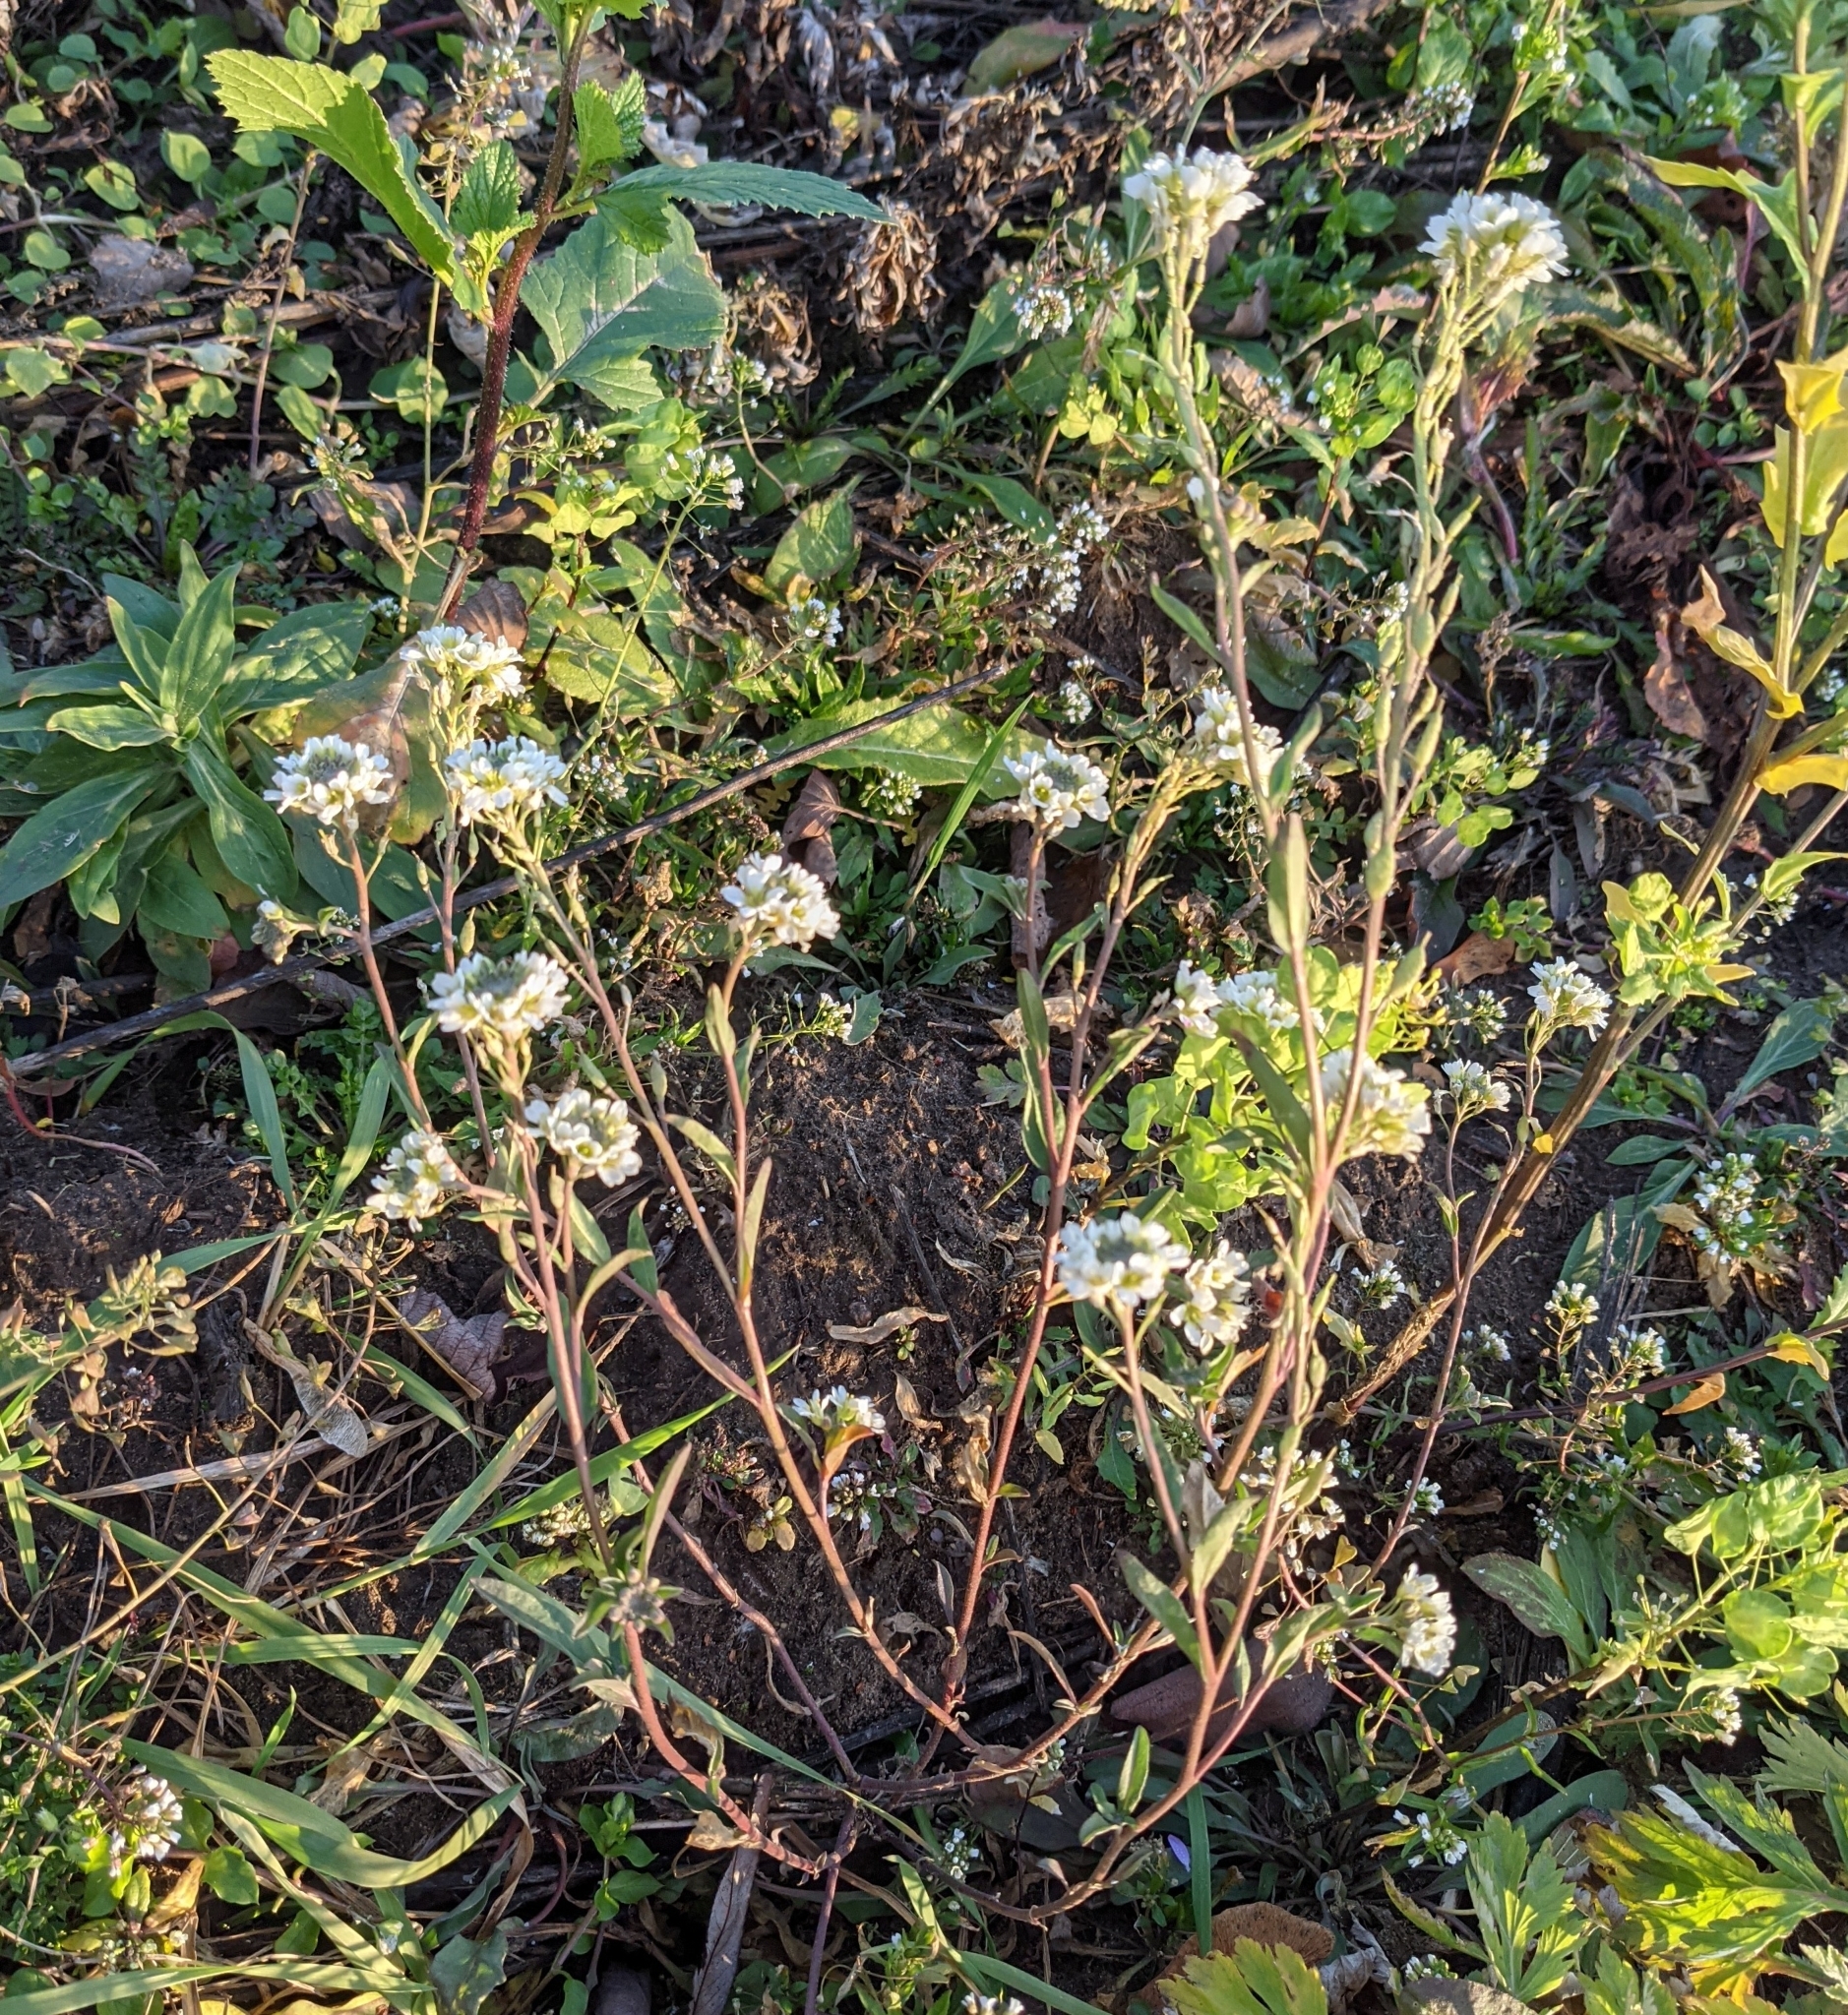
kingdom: Plantae
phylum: Tracheophyta
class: Magnoliopsida
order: Brassicales
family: Brassicaceae
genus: Berteroa
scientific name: Berteroa incana
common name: Hoary alison
